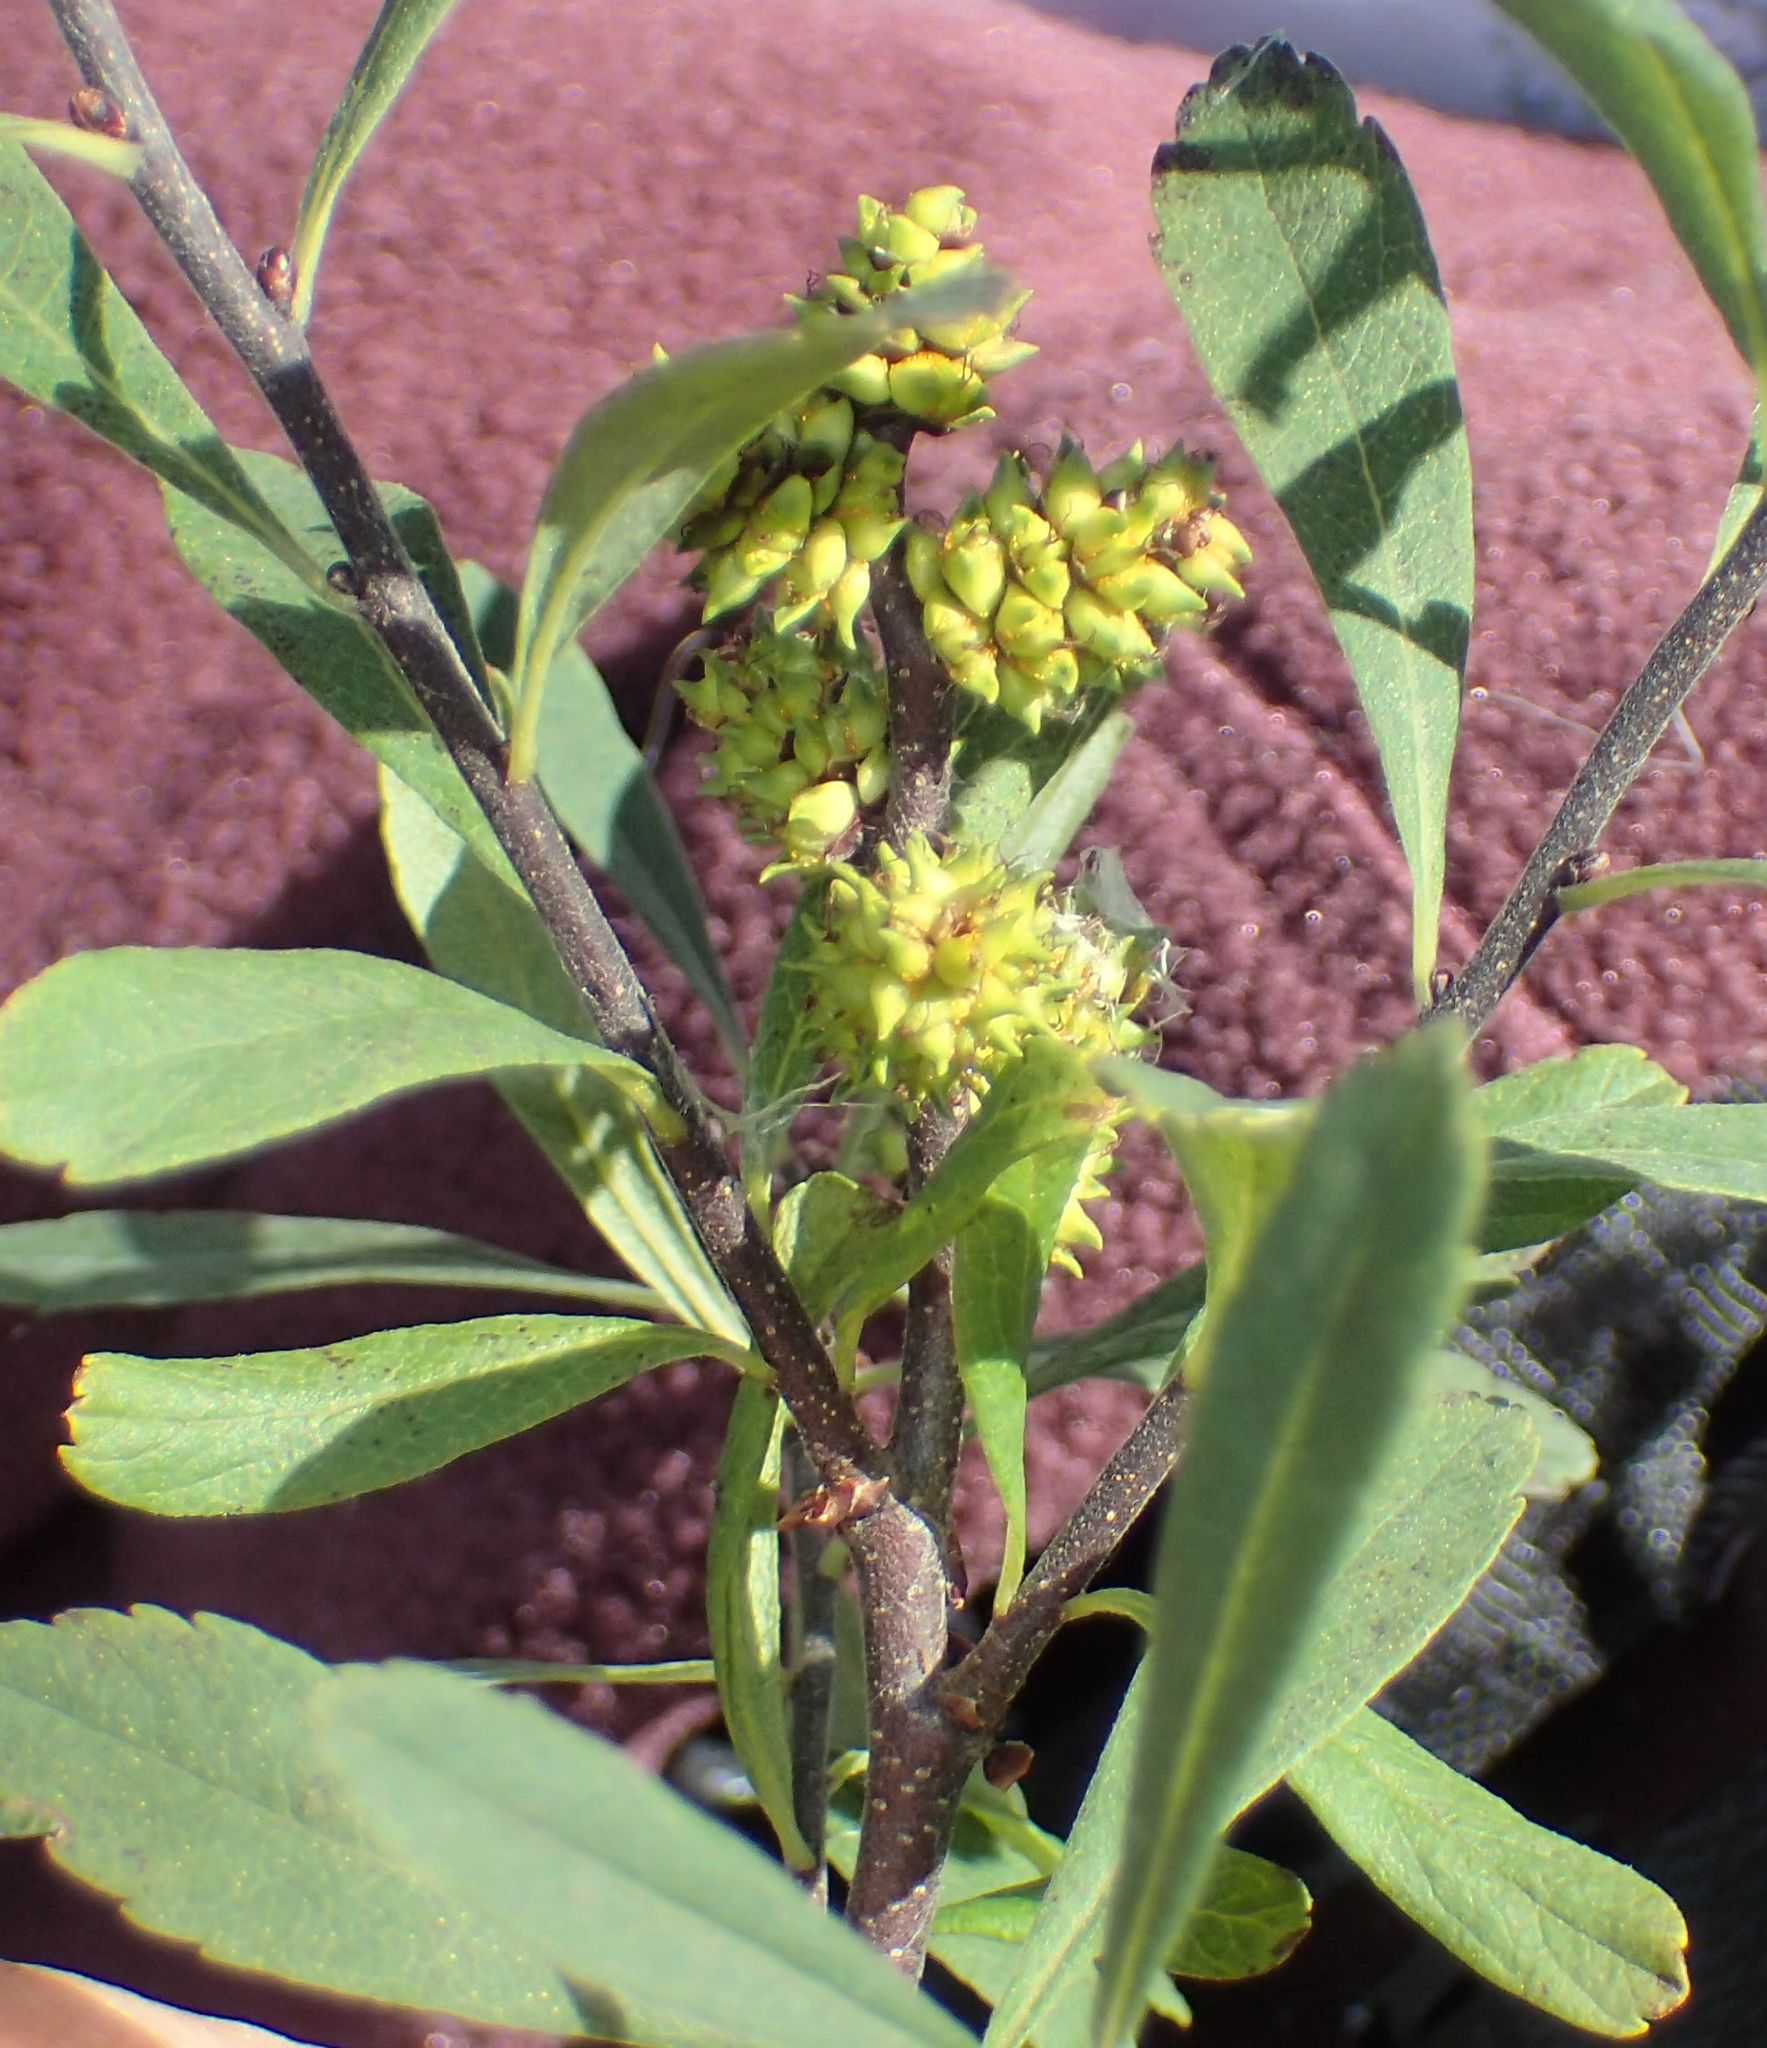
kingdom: Plantae
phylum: Tracheophyta
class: Magnoliopsida
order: Fagales
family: Myricaceae
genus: Myrica
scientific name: Myrica gale
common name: Sweet gale
